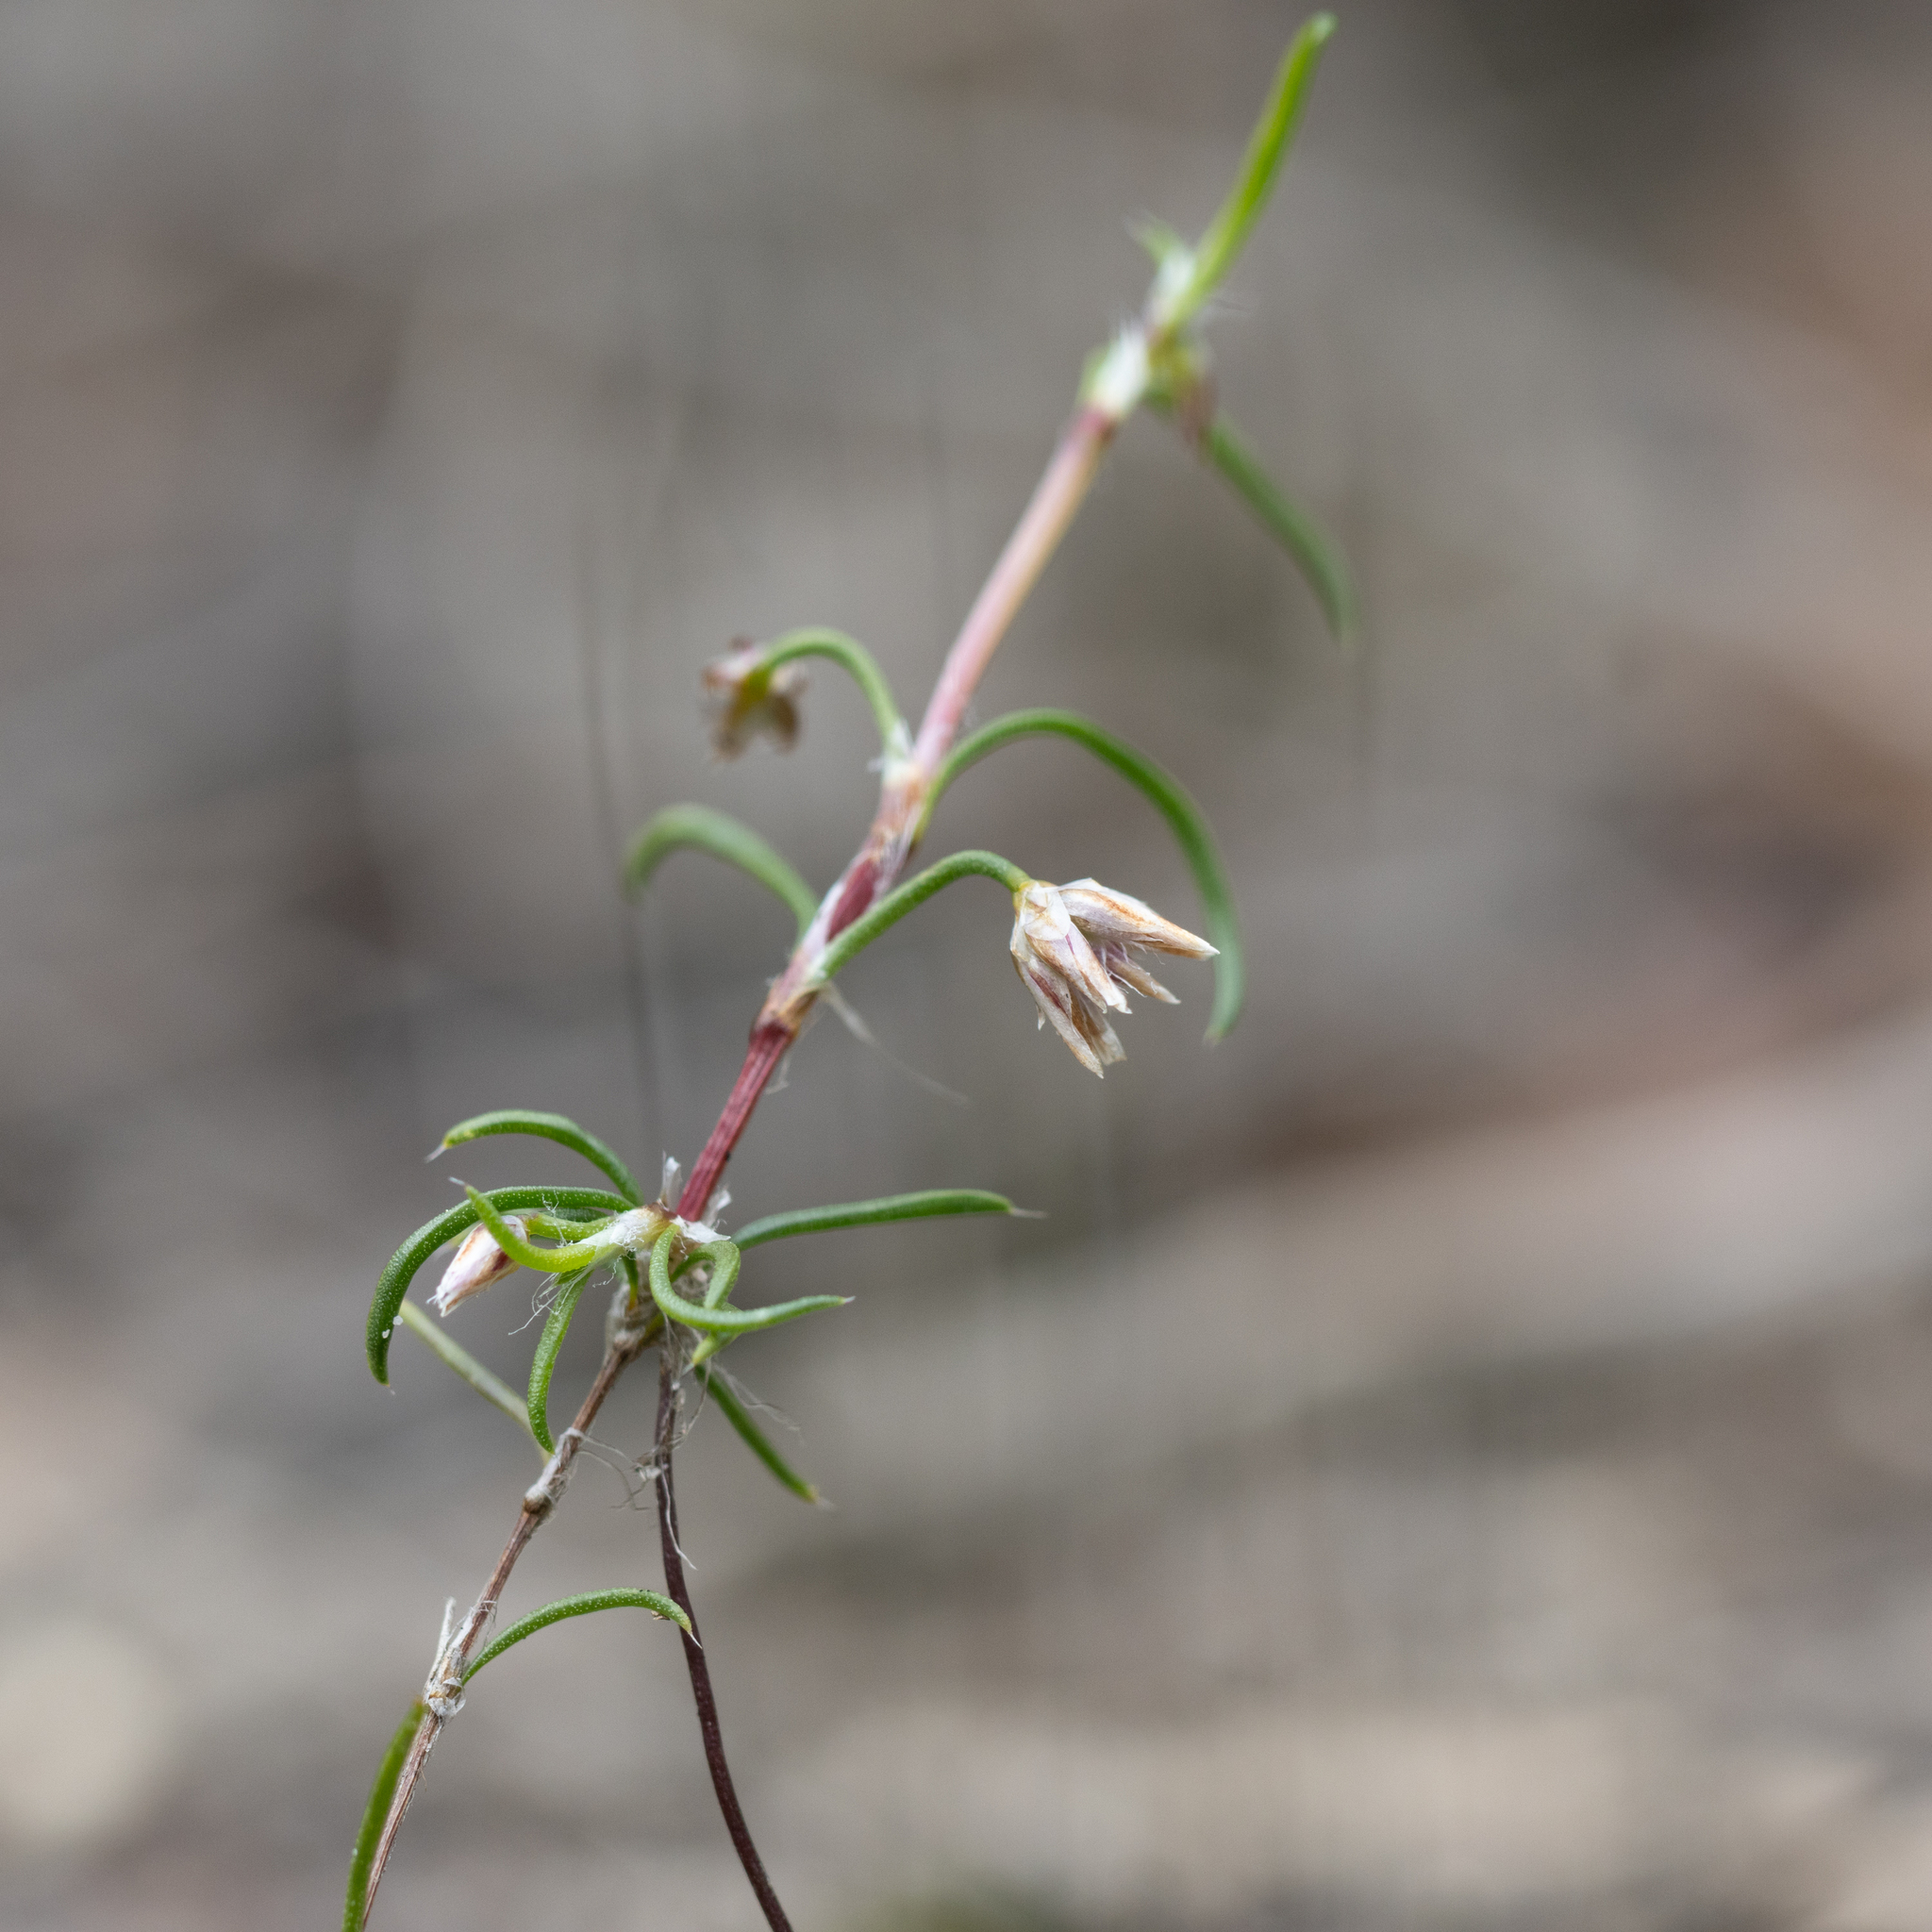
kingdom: Plantae
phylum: Tracheophyta
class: Liliopsida
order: Asparagales
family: Asparagaceae
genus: Laxmannia
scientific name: Laxmannia orientalis
